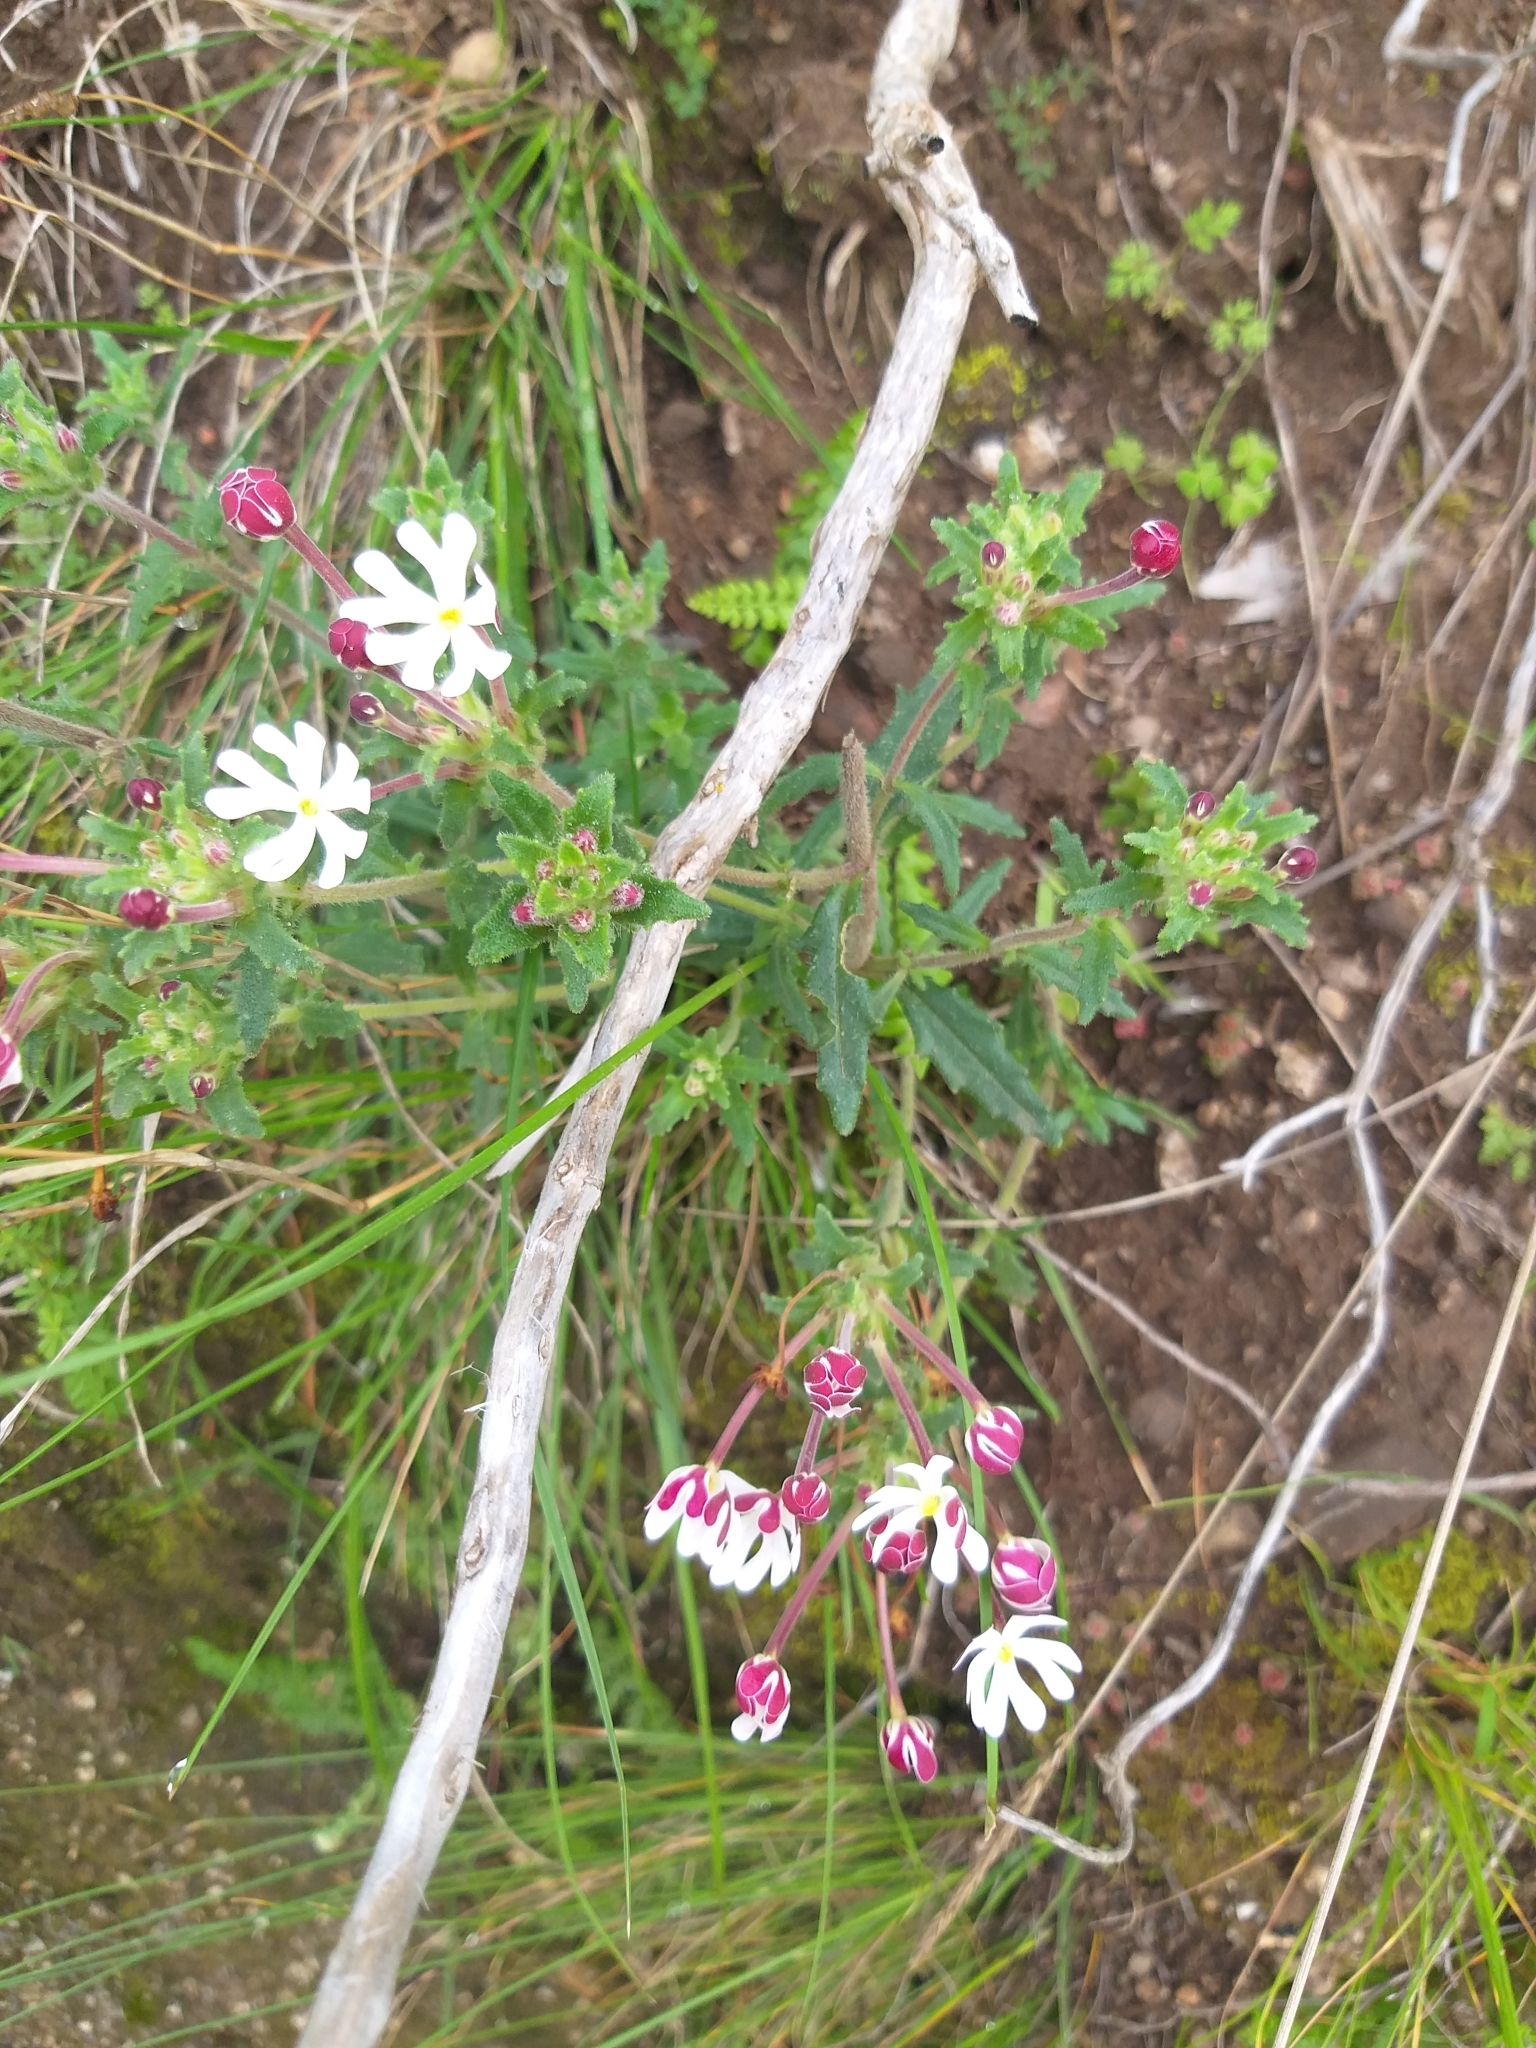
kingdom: Plantae
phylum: Tracheophyta
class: Magnoliopsida
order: Lamiales
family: Scrophulariaceae
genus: Zaluzianskya
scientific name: Zaluzianskya capensis
